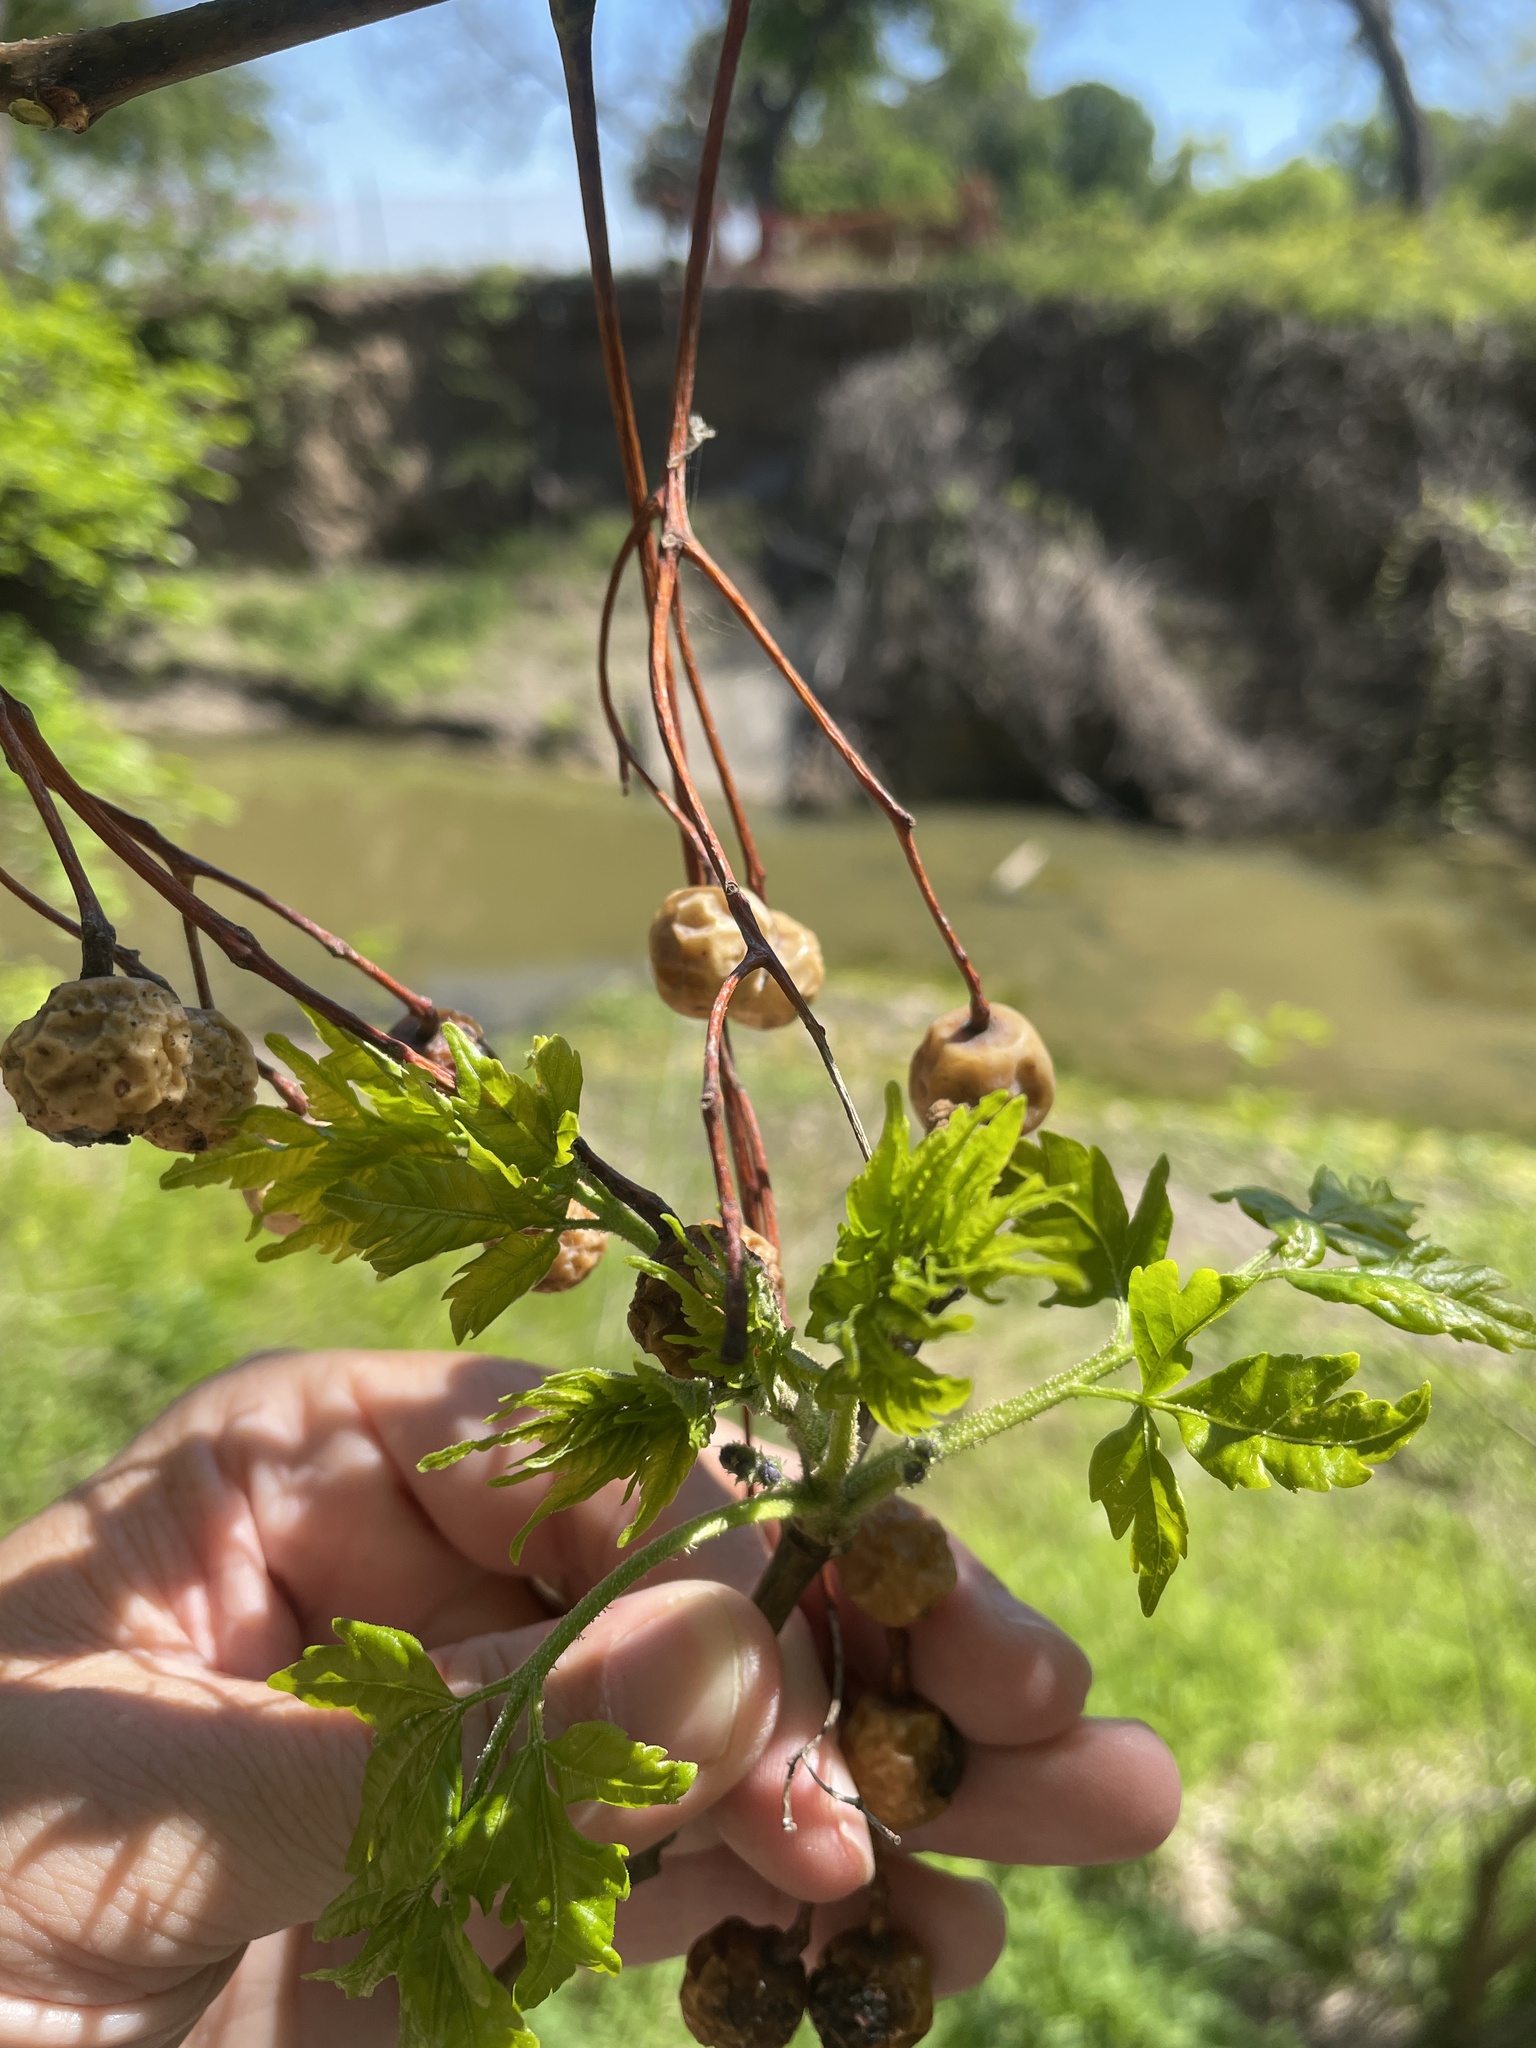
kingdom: Plantae
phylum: Tracheophyta
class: Magnoliopsida
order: Sapindales
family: Meliaceae
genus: Melia
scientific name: Melia azedarach
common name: Chinaberrytree
